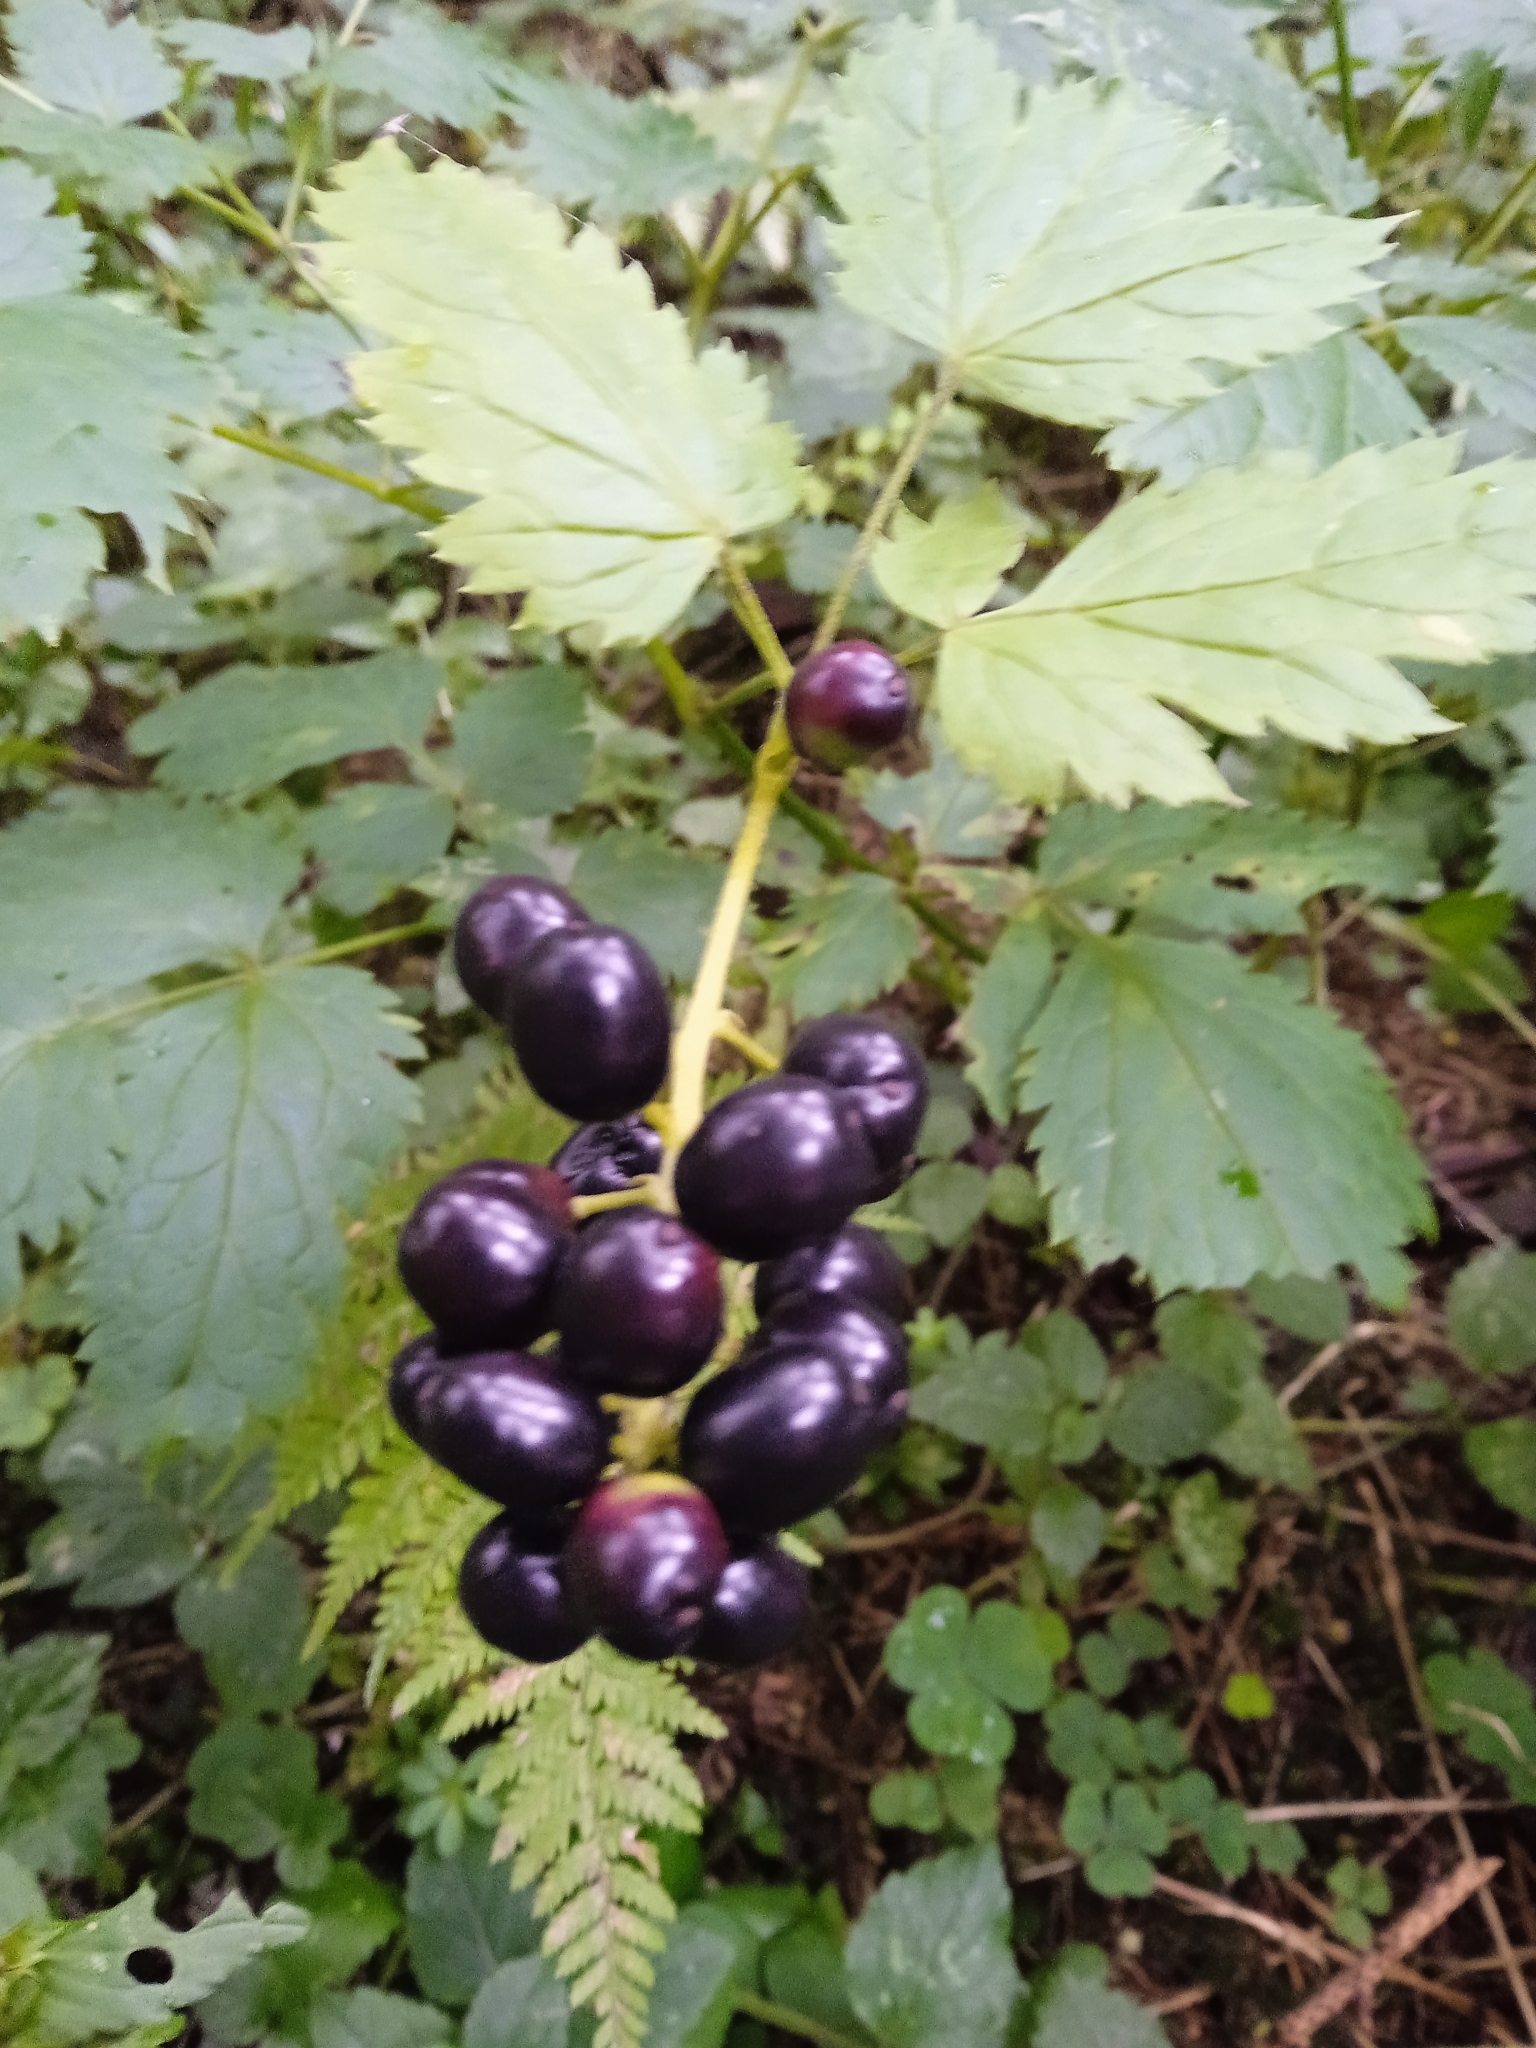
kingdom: Plantae
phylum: Tracheophyta
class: Magnoliopsida
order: Ranunculales
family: Ranunculaceae
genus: Actaea
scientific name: Actaea spicata
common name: Baneberry
